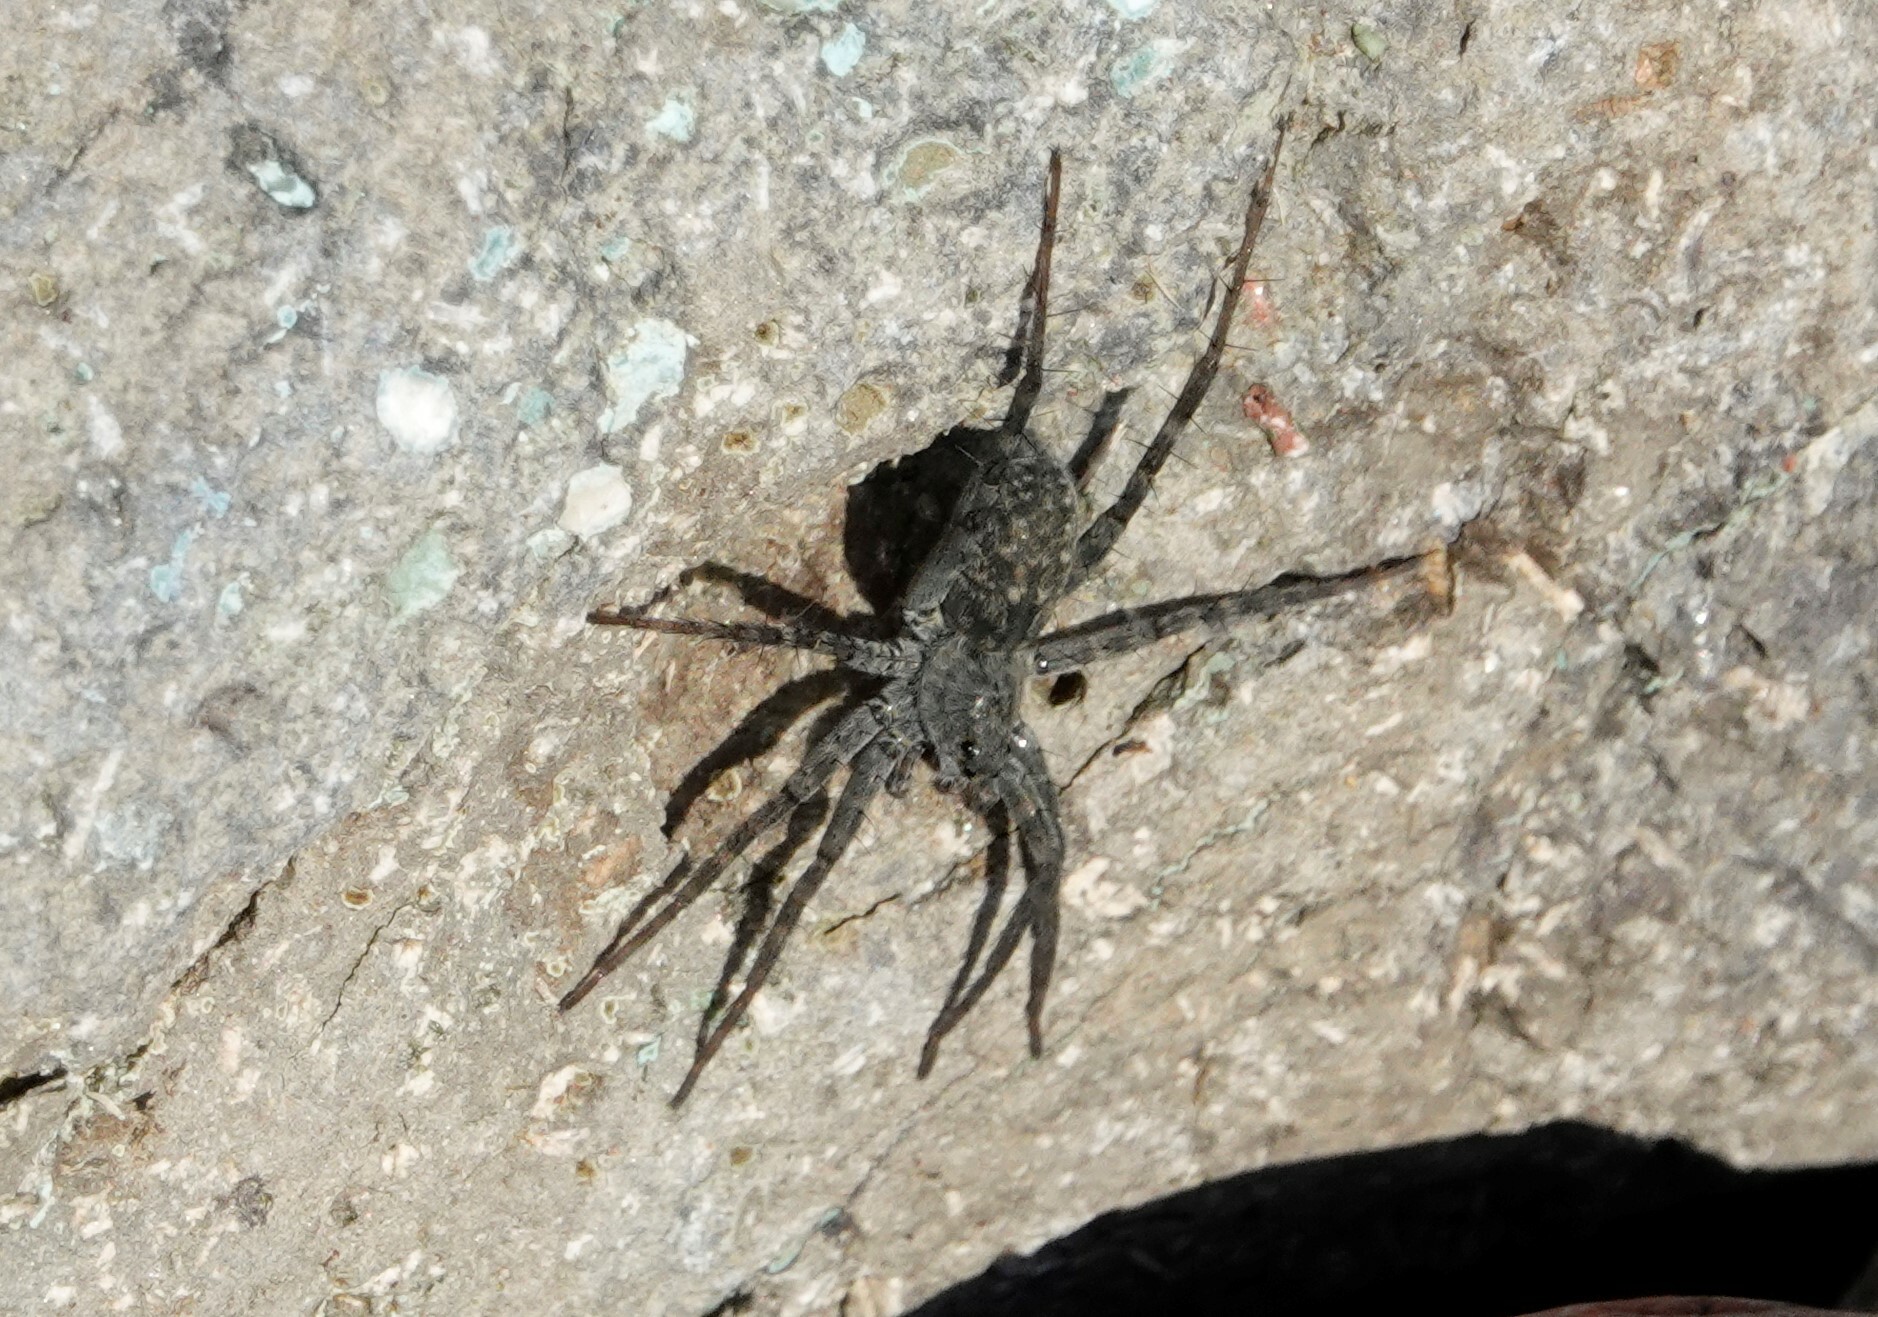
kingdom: Animalia
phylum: Arthropoda
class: Arachnida
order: Araneae
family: Lycosidae
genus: Pardosa
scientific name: Pardosa lapidicina
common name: Stone spider
